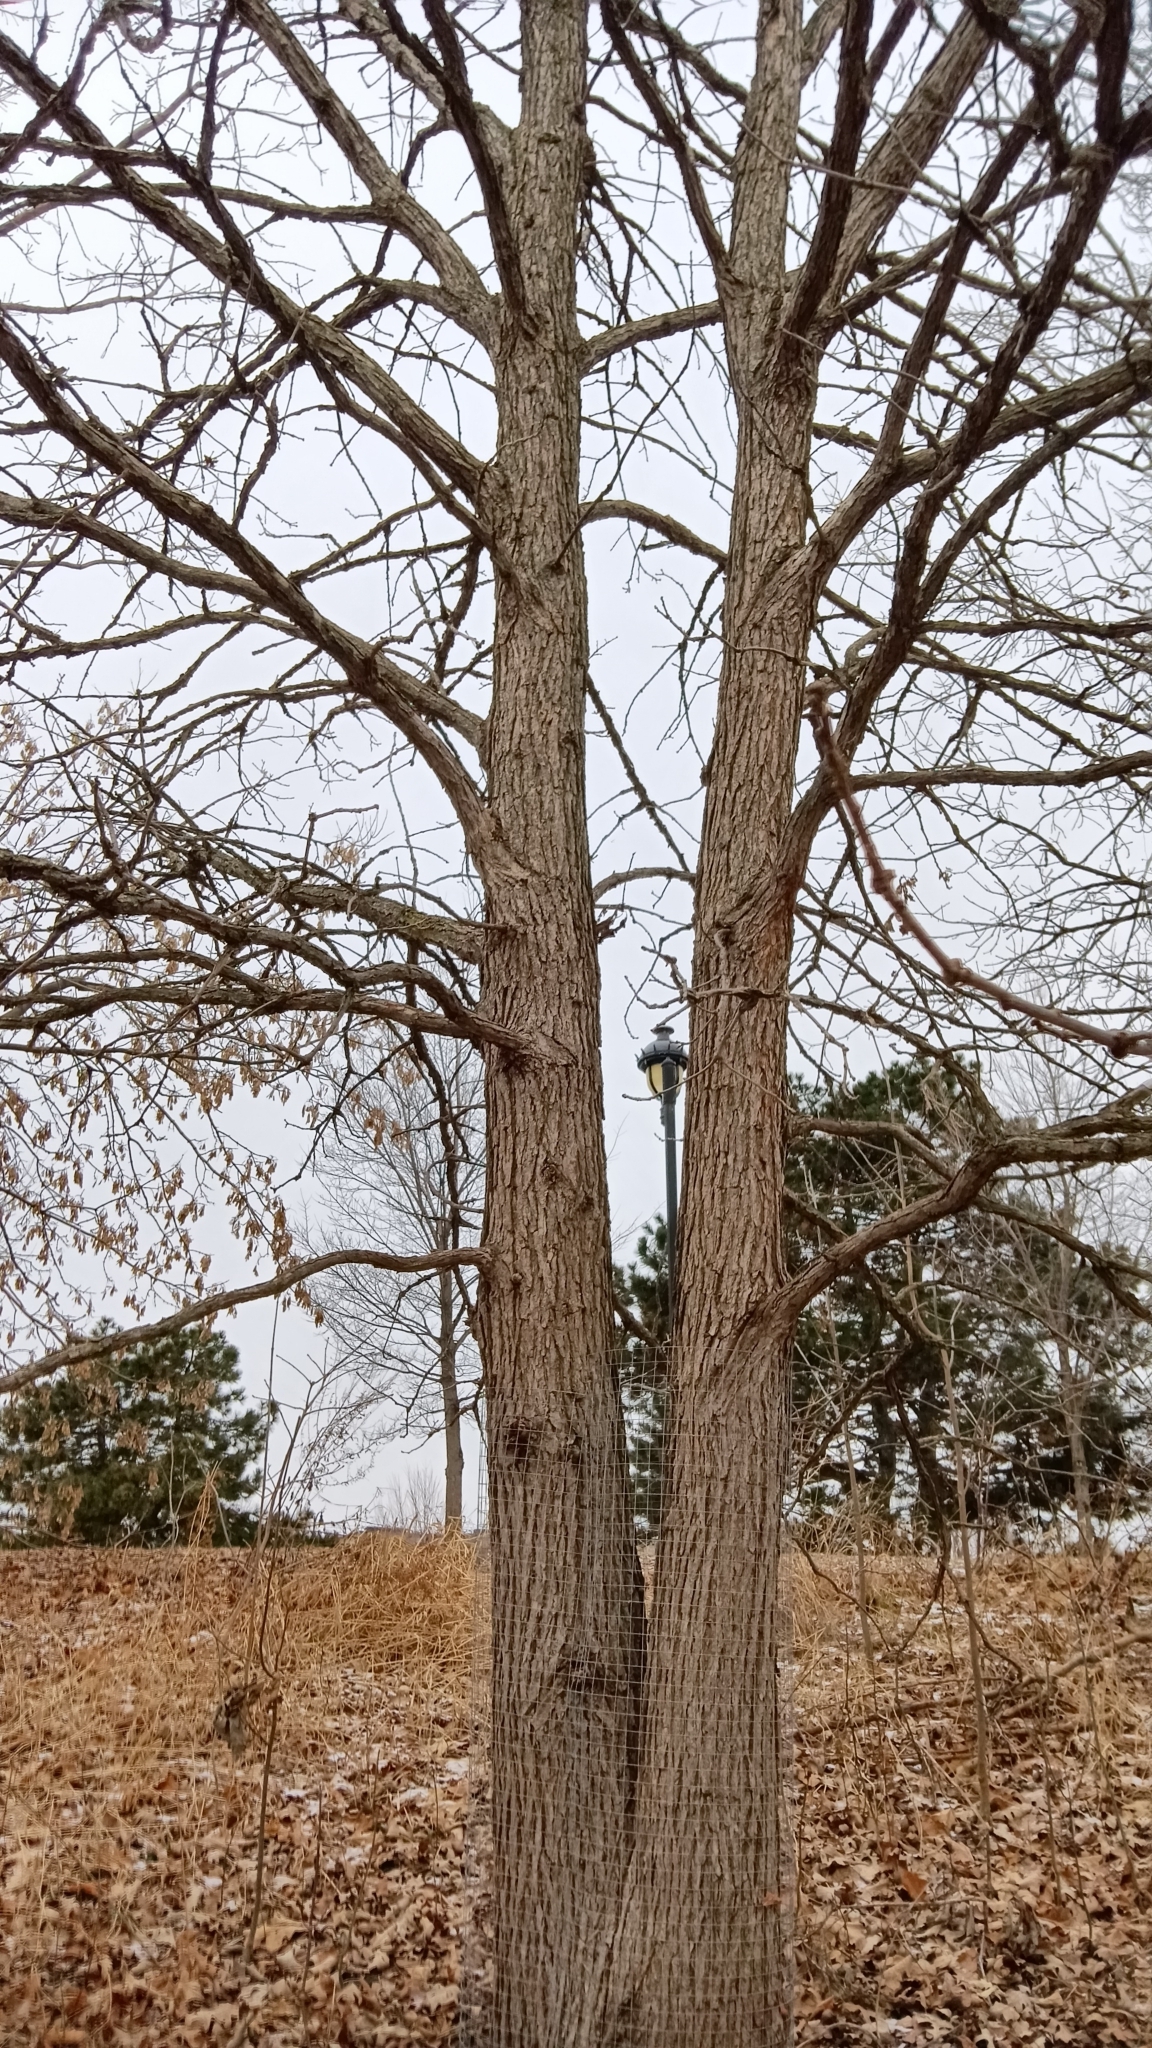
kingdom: Plantae
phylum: Tracheophyta
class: Magnoliopsida
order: Fagales
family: Fagaceae
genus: Quercus
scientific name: Quercus macrocarpa
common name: Bur oak
